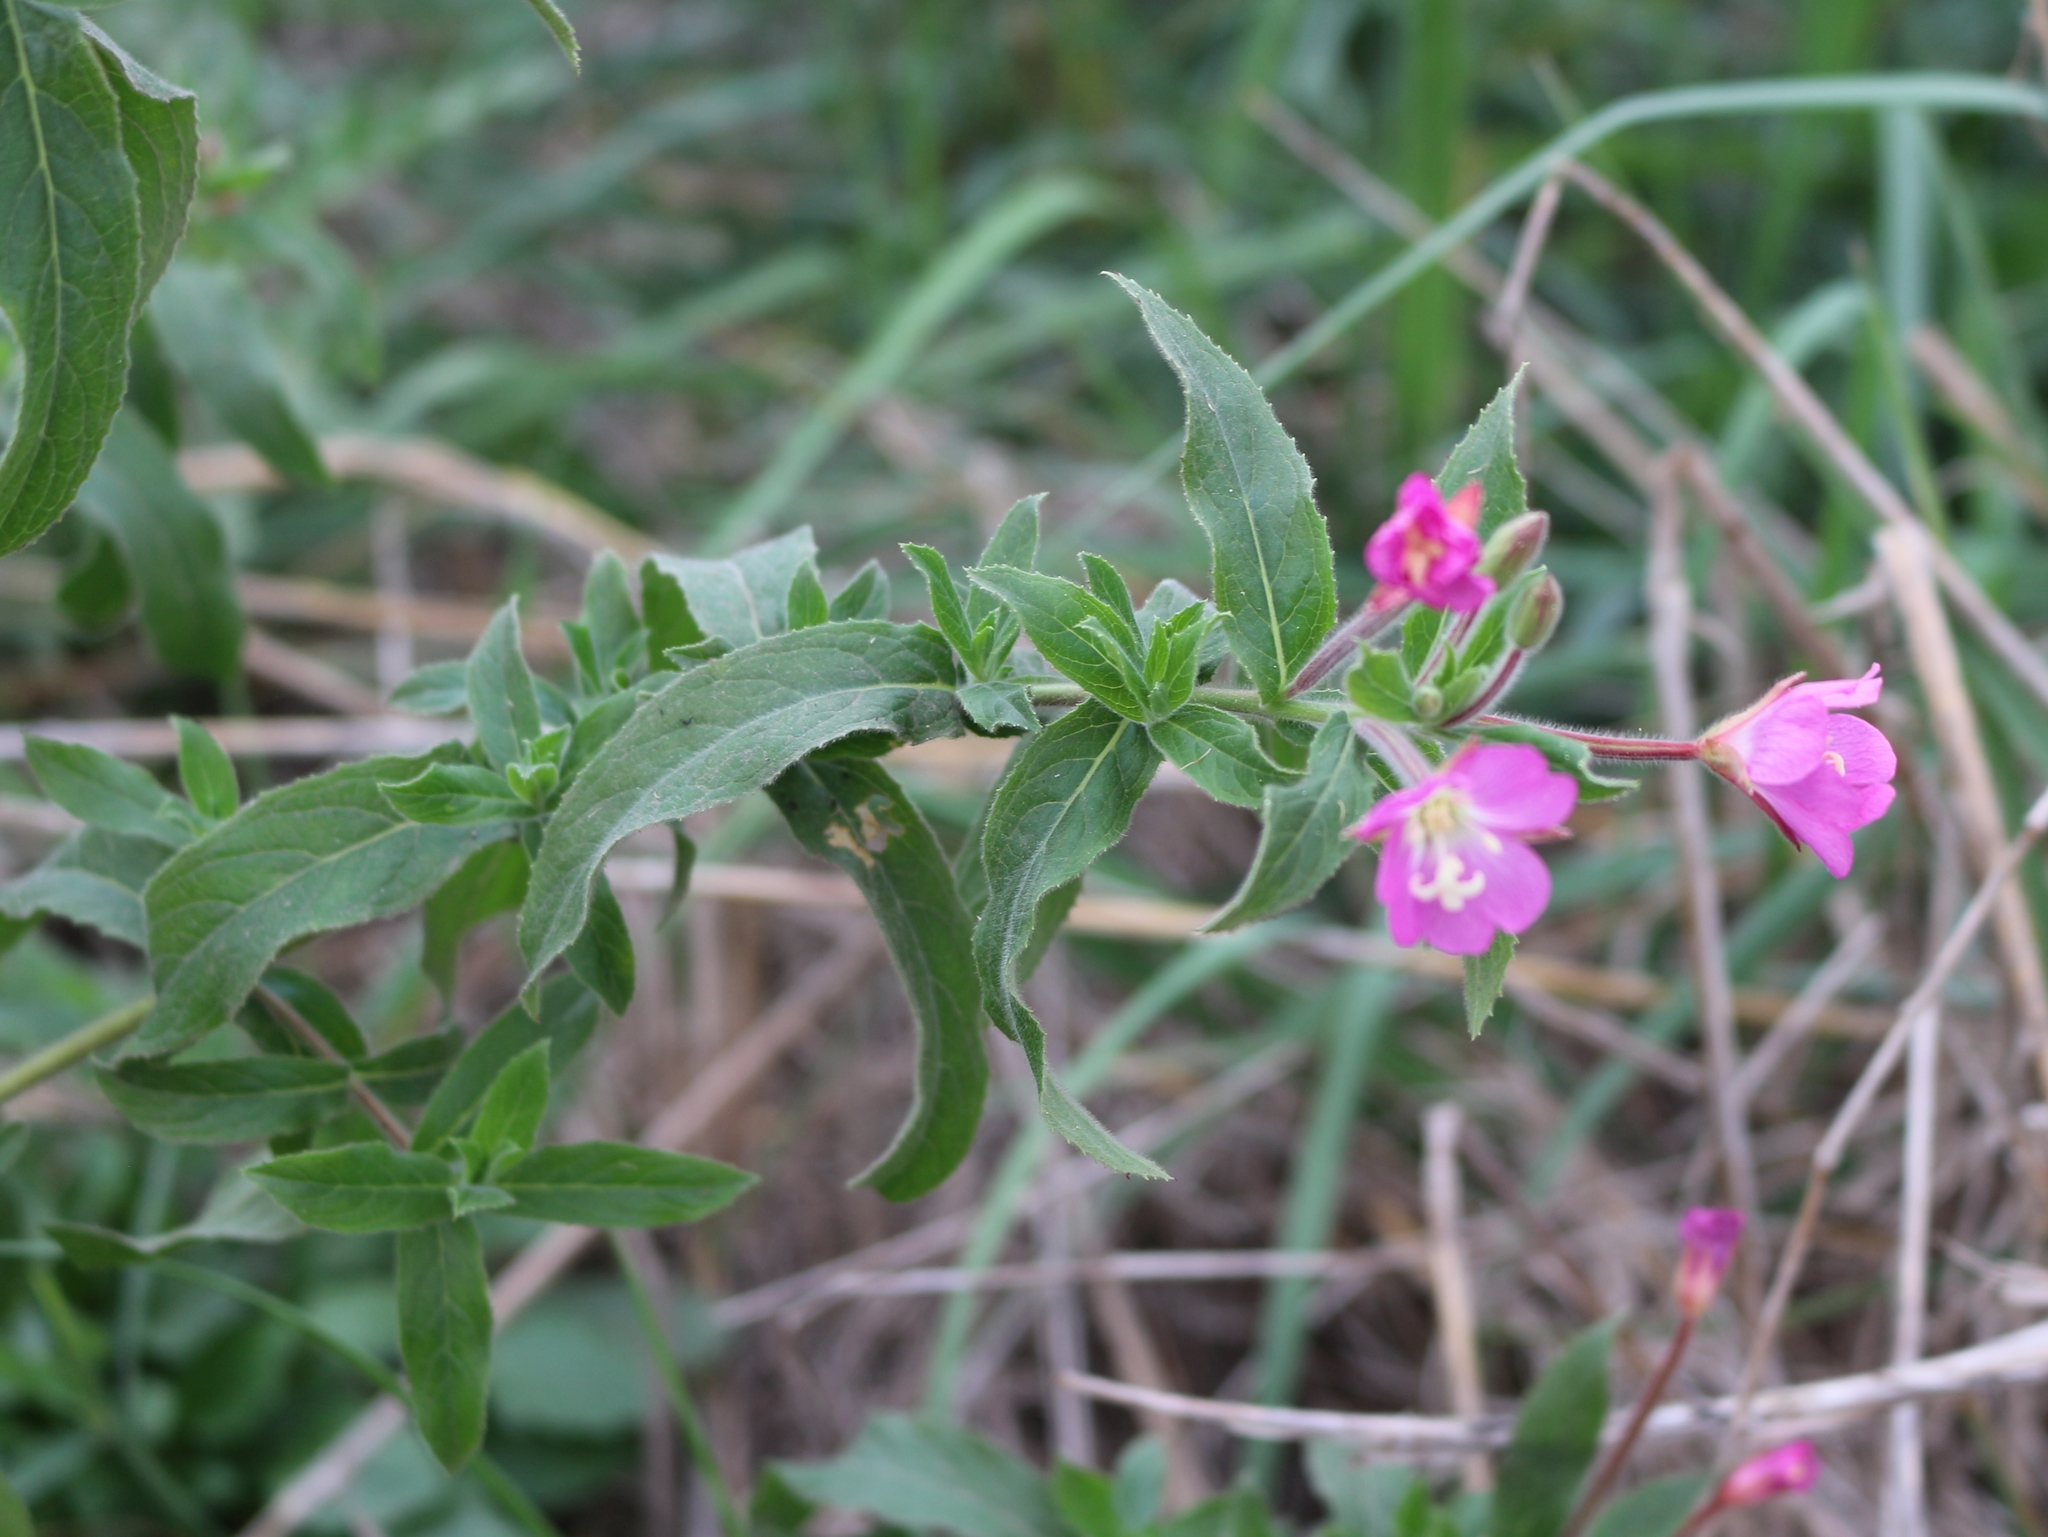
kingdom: Plantae
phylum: Tracheophyta
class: Magnoliopsida
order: Myrtales
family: Onagraceae
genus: Epilobium
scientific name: Epilobium hirsutum
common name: Great willowherb
